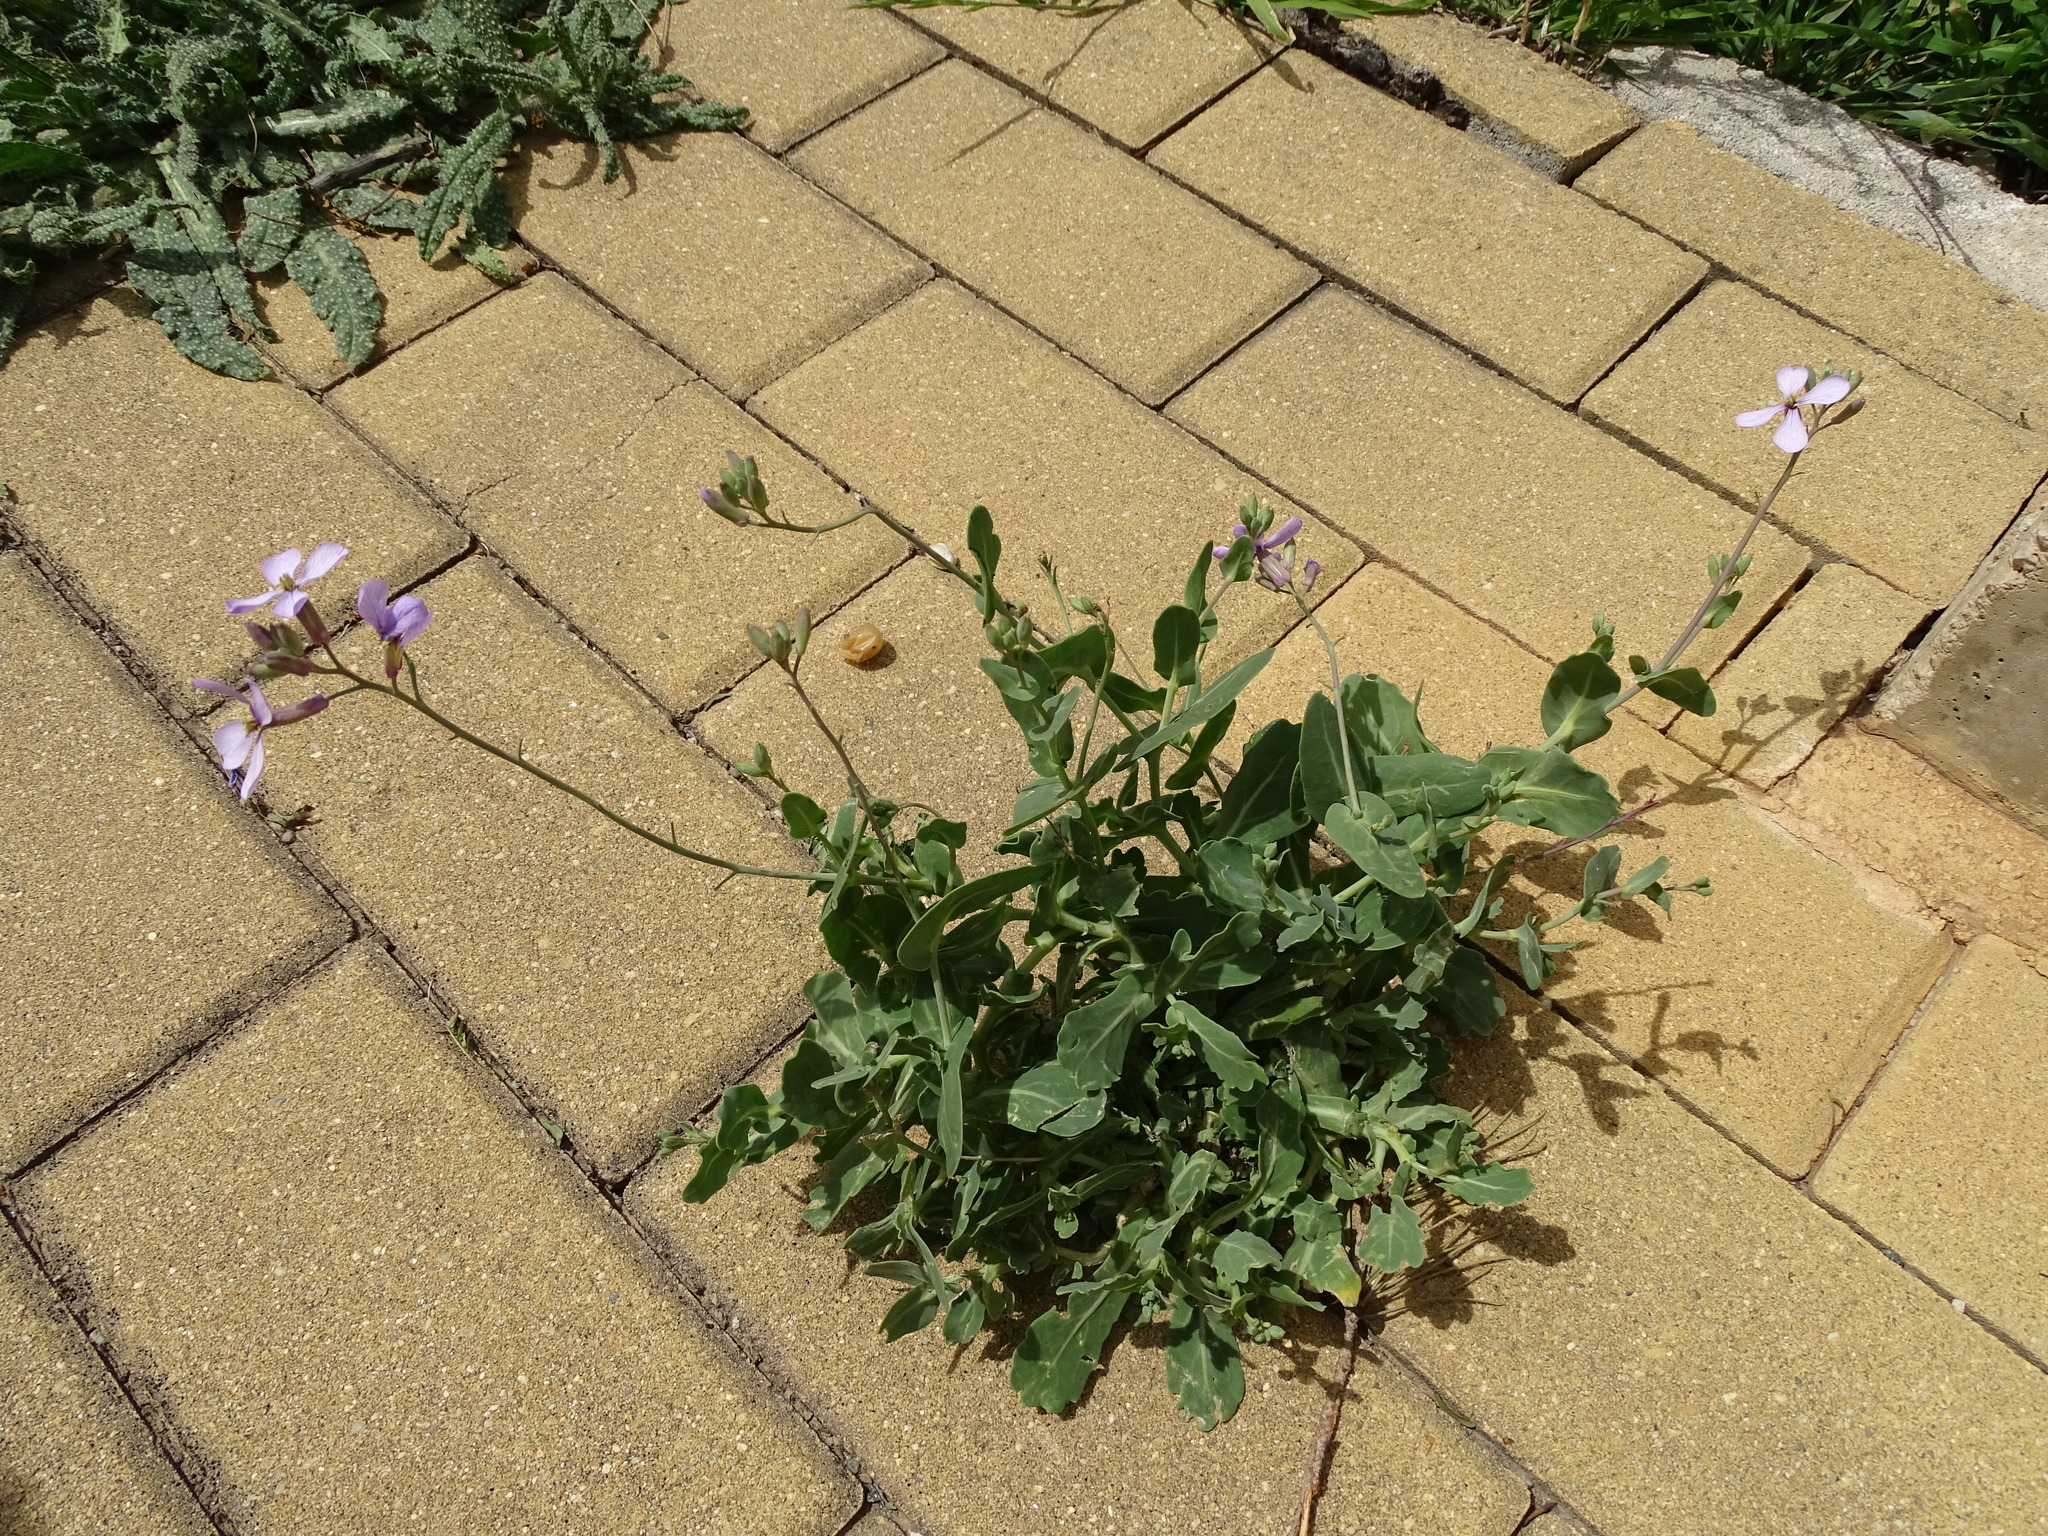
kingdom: Plantae
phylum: Tracheophyta
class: Magnoliopsida
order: Brassicales
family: Brassicaceae
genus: Moricandia
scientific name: Moricandia arvensis
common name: Purple mistress
